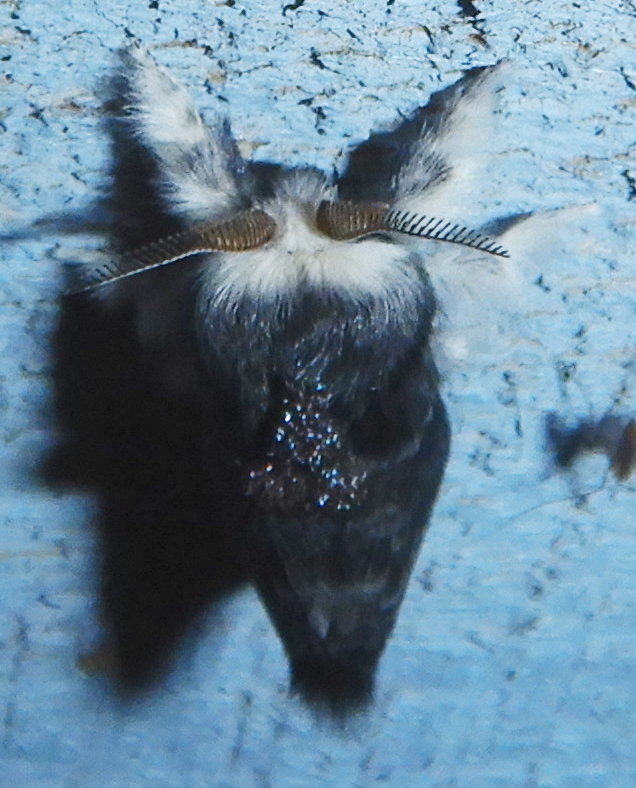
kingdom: Animalia
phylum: Arthropoda
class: Insecta
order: Lepidoptera
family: Lasiocampidae
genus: Tolype
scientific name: Tolype laricis
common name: Larch tolype moth
